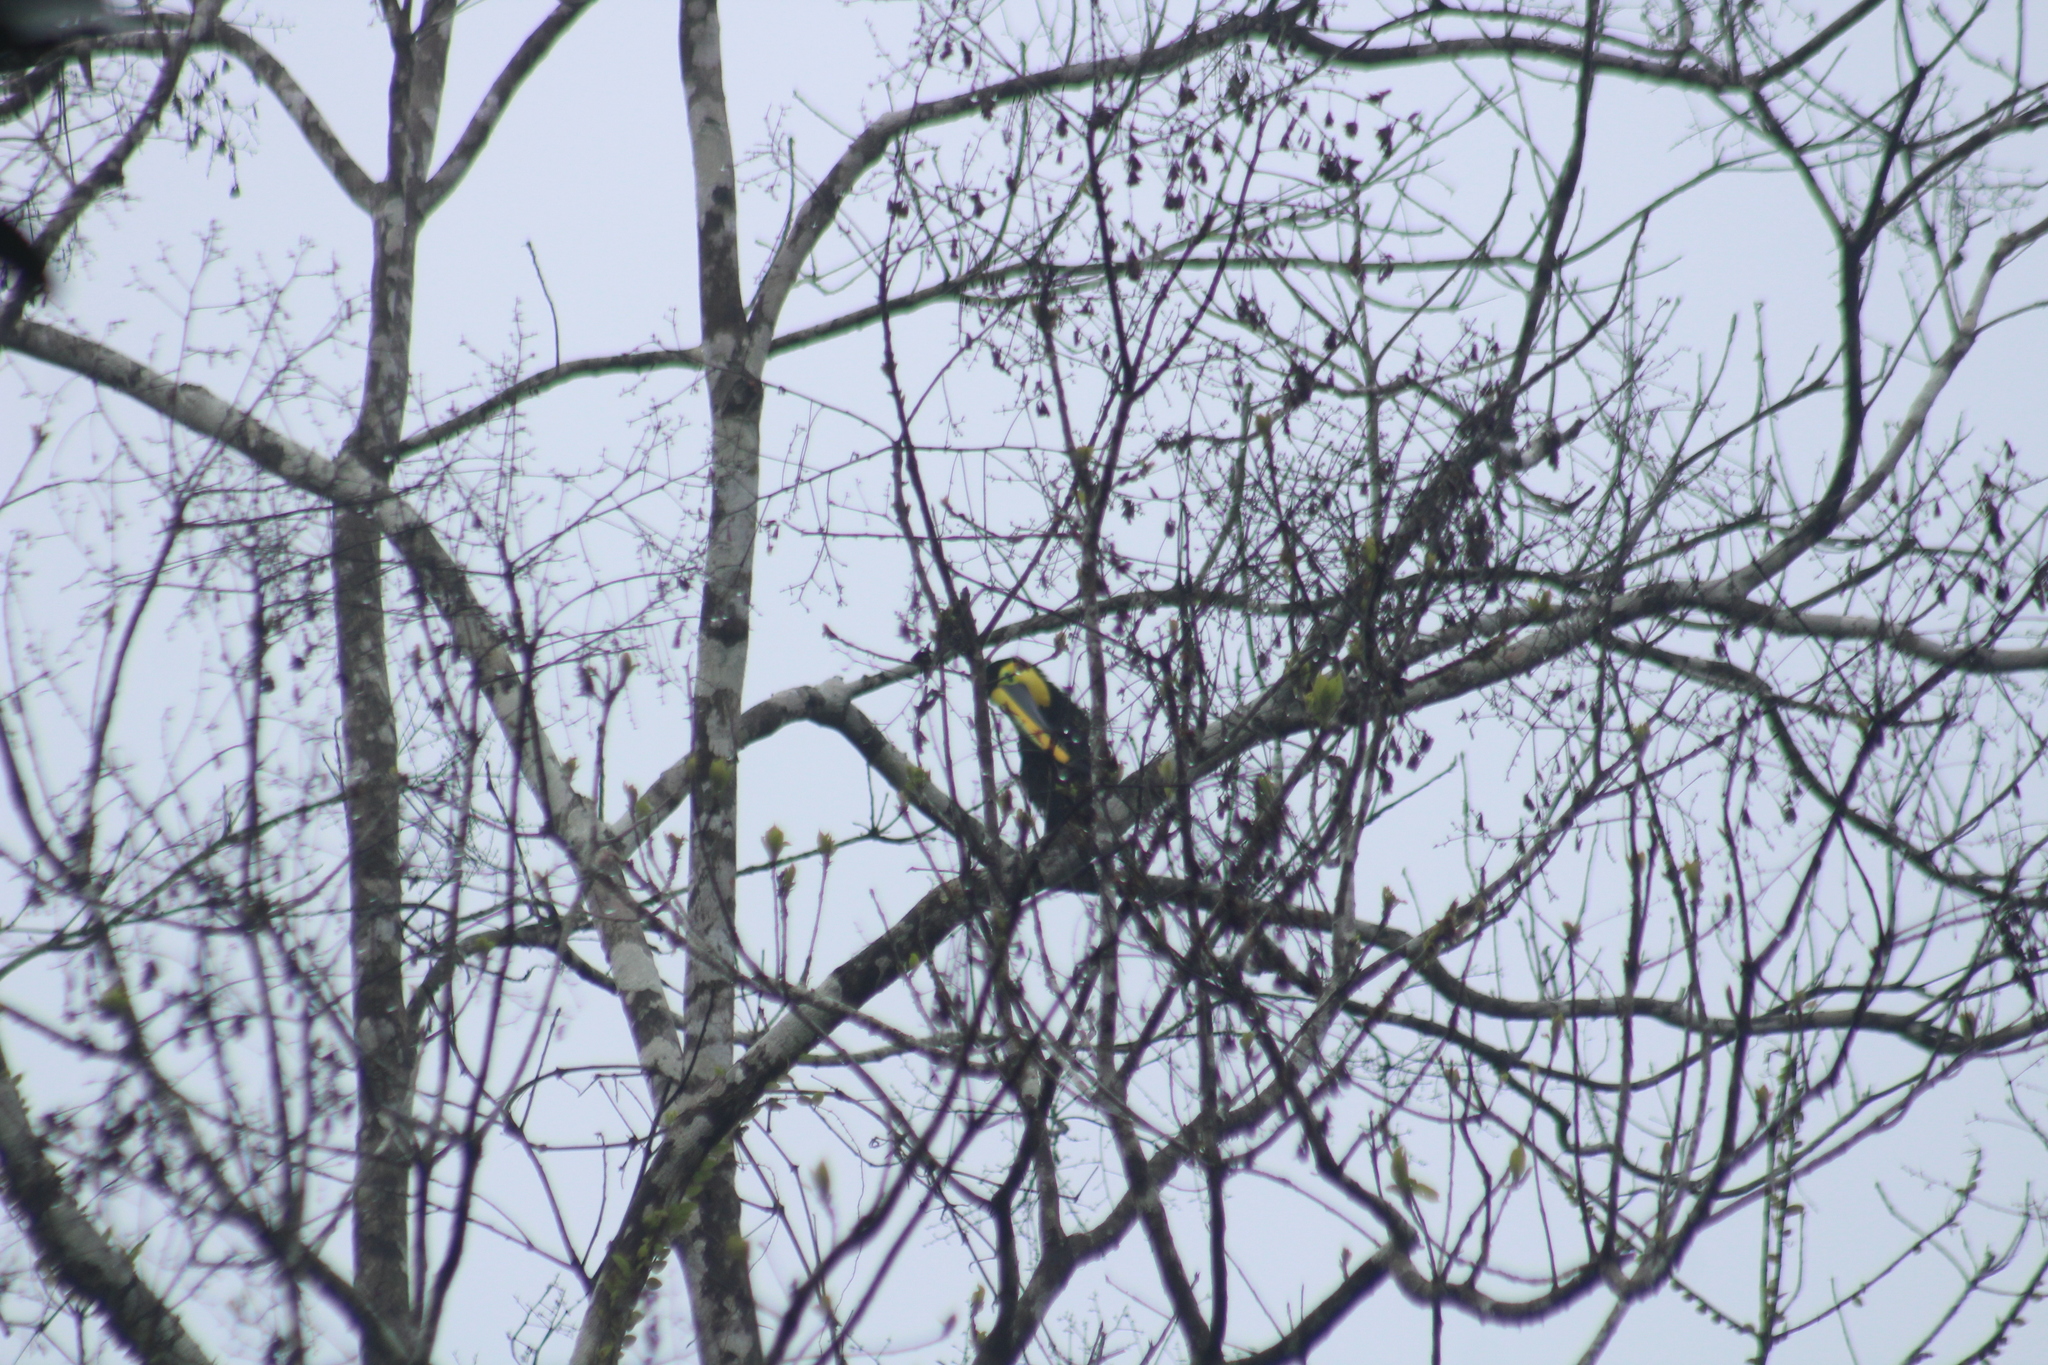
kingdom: Animalia
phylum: Chordata
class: Aves
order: Piciformes
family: Ramphastidae
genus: Ramphastos
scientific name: Ramphastos brevis
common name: Choco toucan
